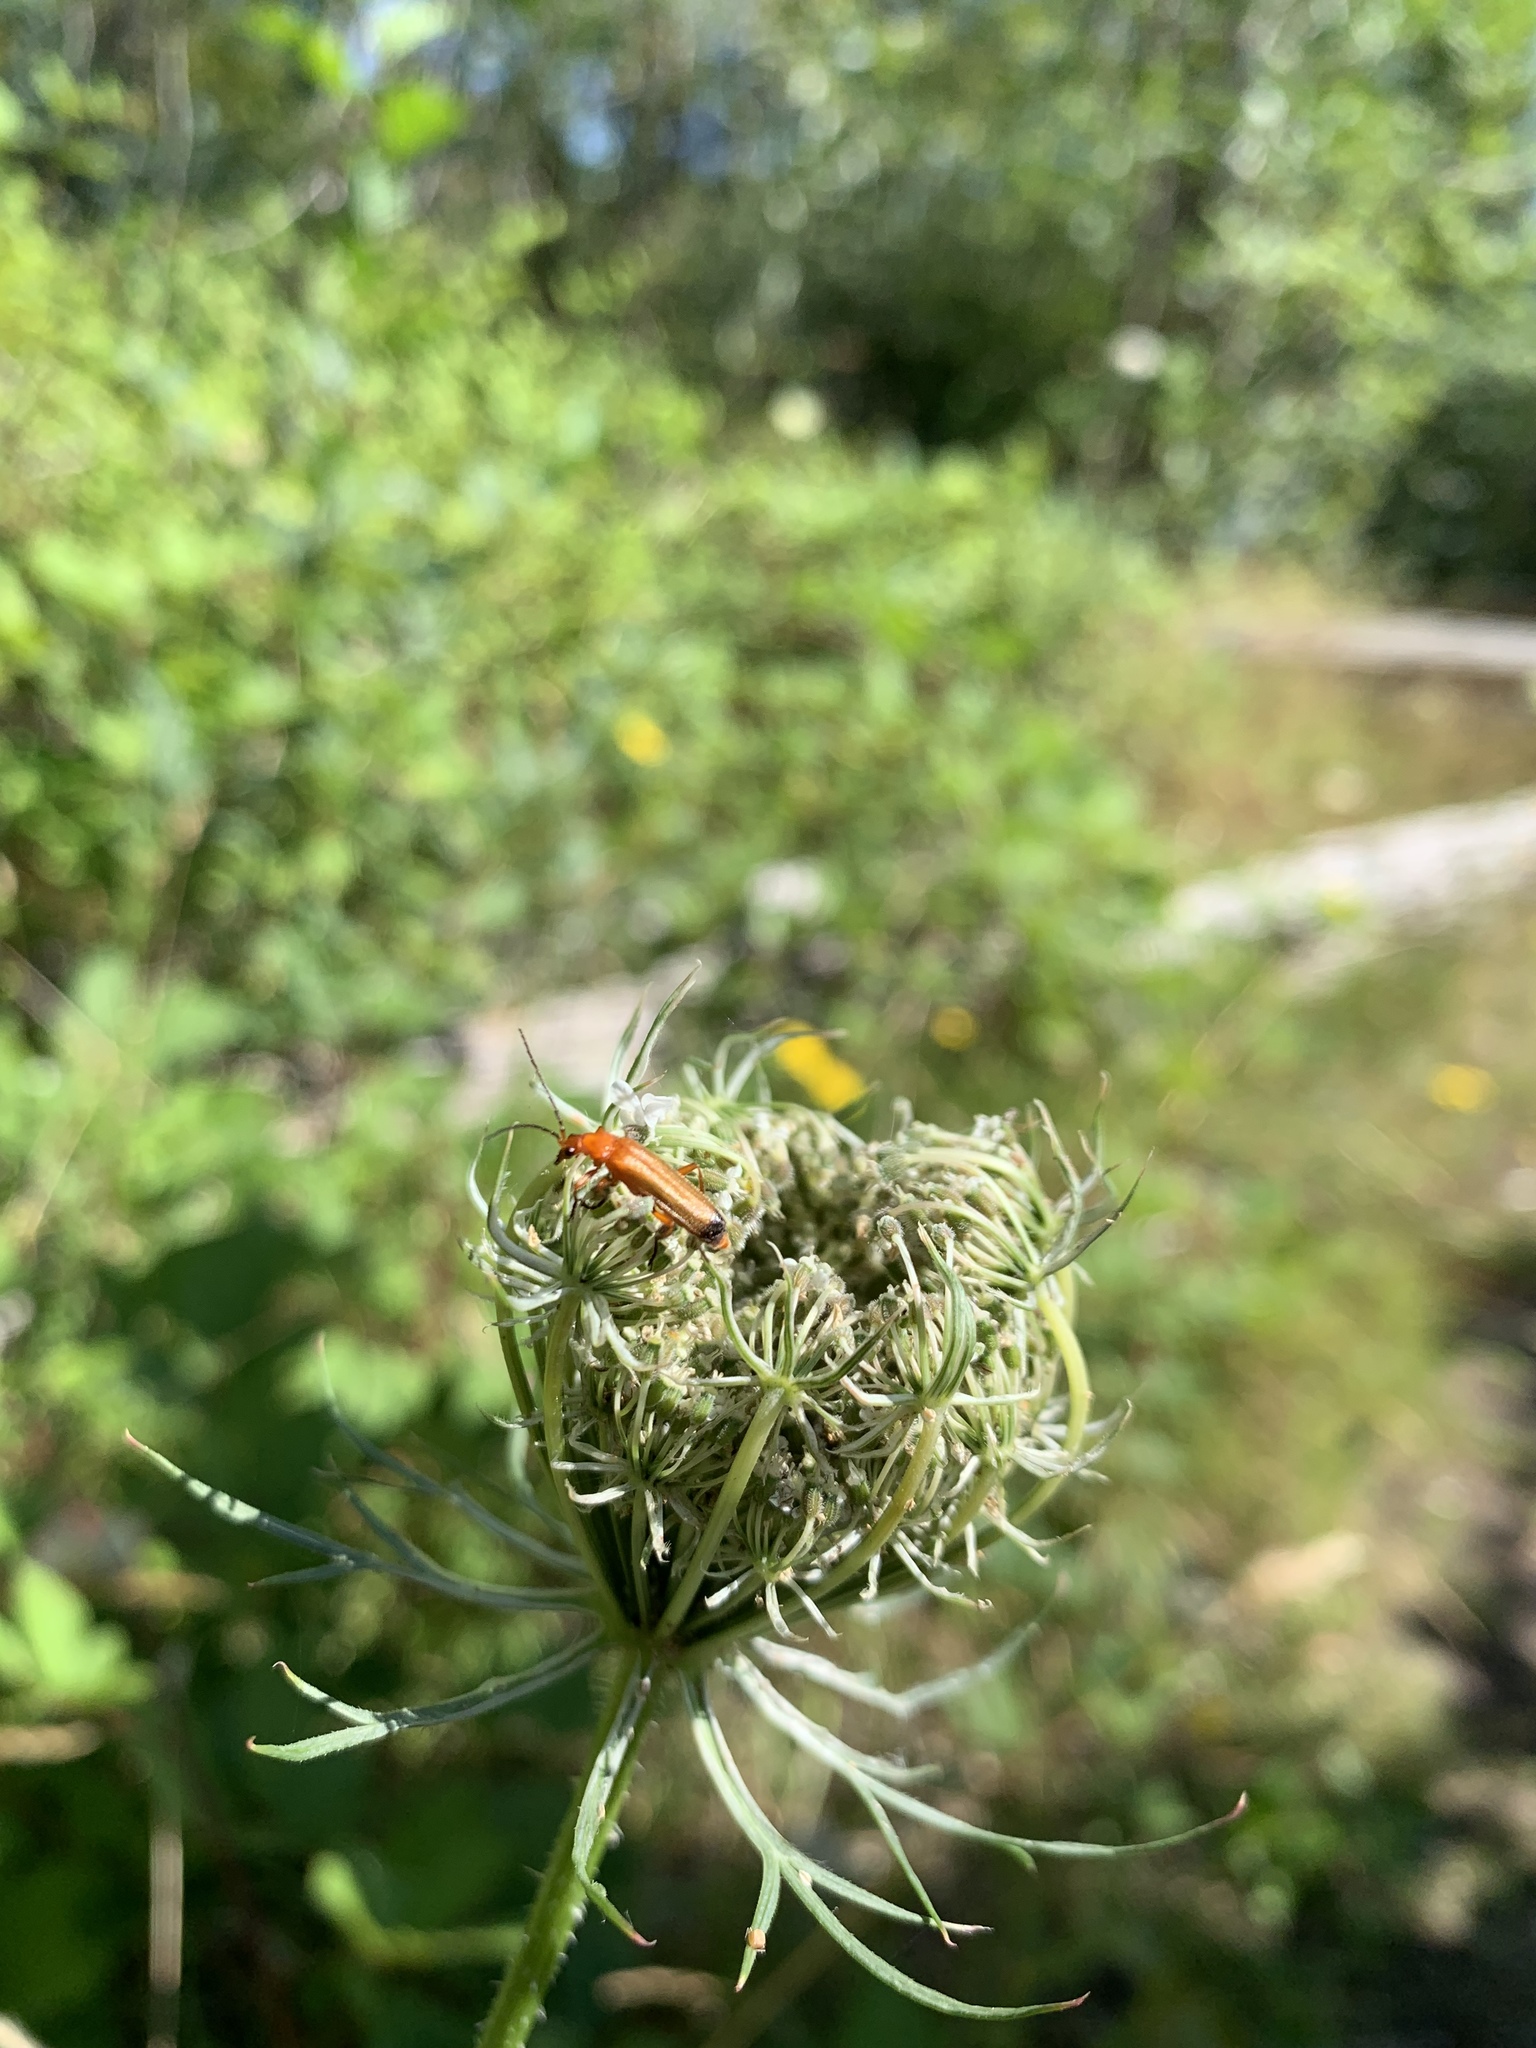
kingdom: Animalia
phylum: Arthropoda
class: Insecta
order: Coleoptera
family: Cantharidae
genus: Rhagonycha
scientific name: Rhagonycha fulva
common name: Common red soldier beetle
